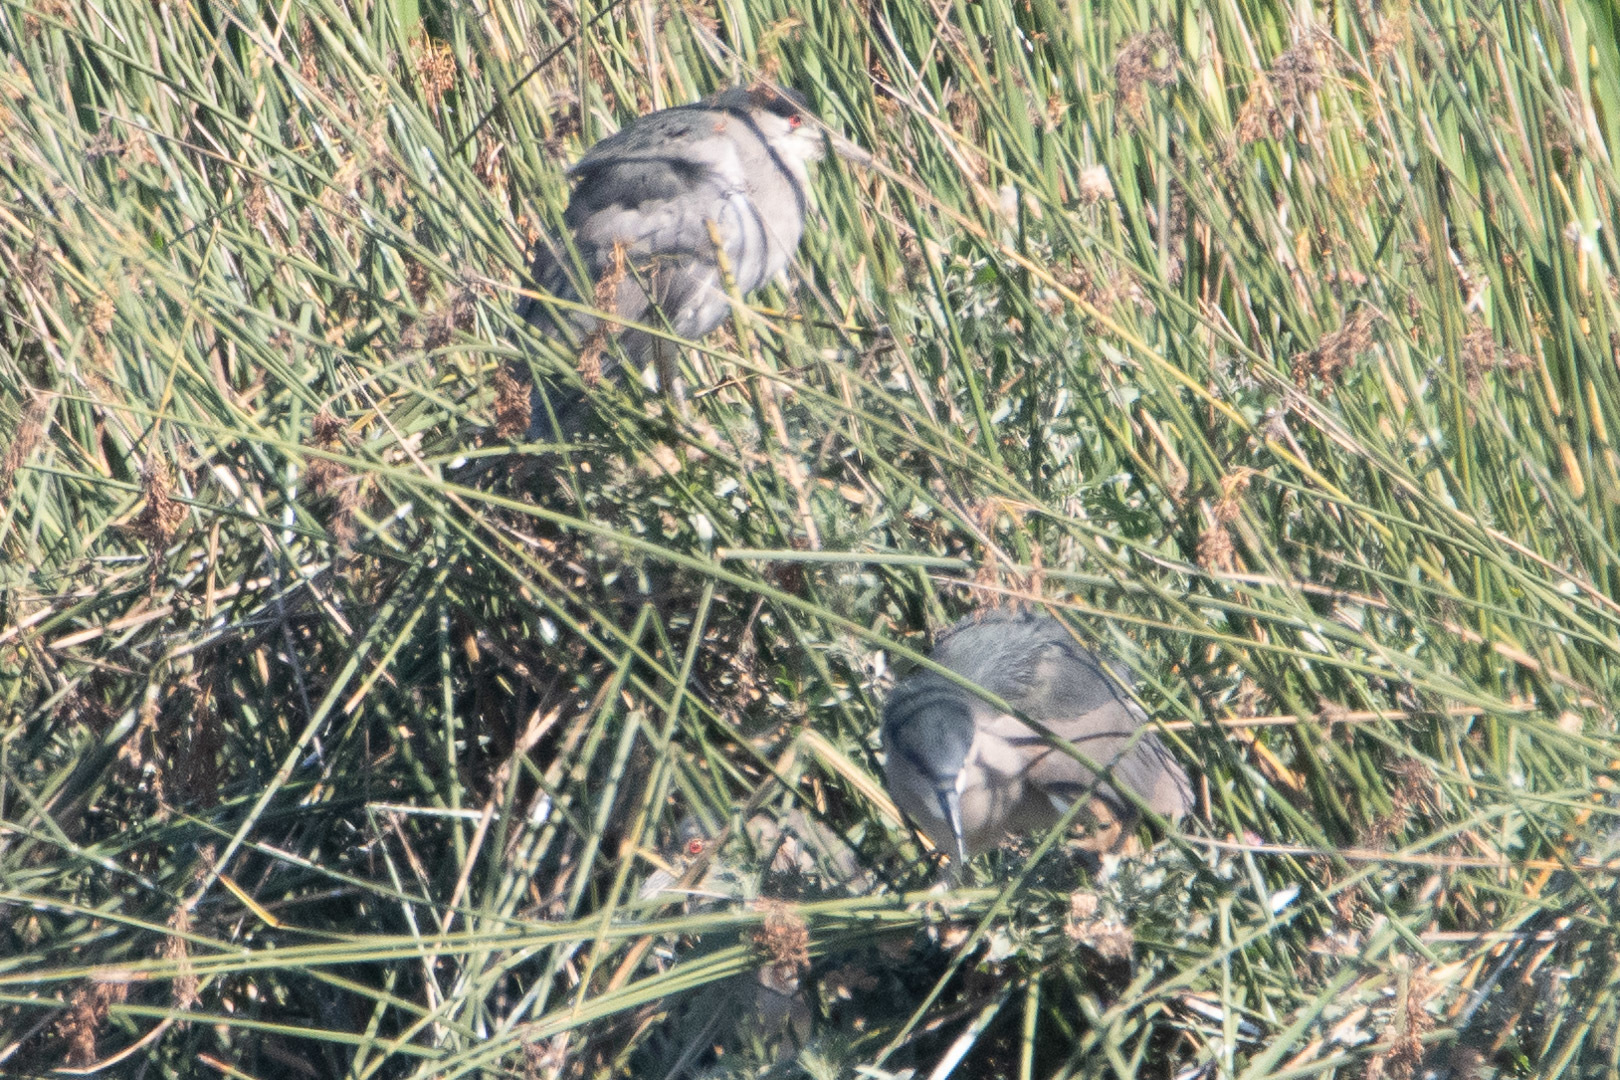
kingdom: Animalia
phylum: Chordata
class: Aves
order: Pelecaniformes
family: Ardeidae
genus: Nycticorax
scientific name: Nycticorax nycticorax
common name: Black-crowned night heron
